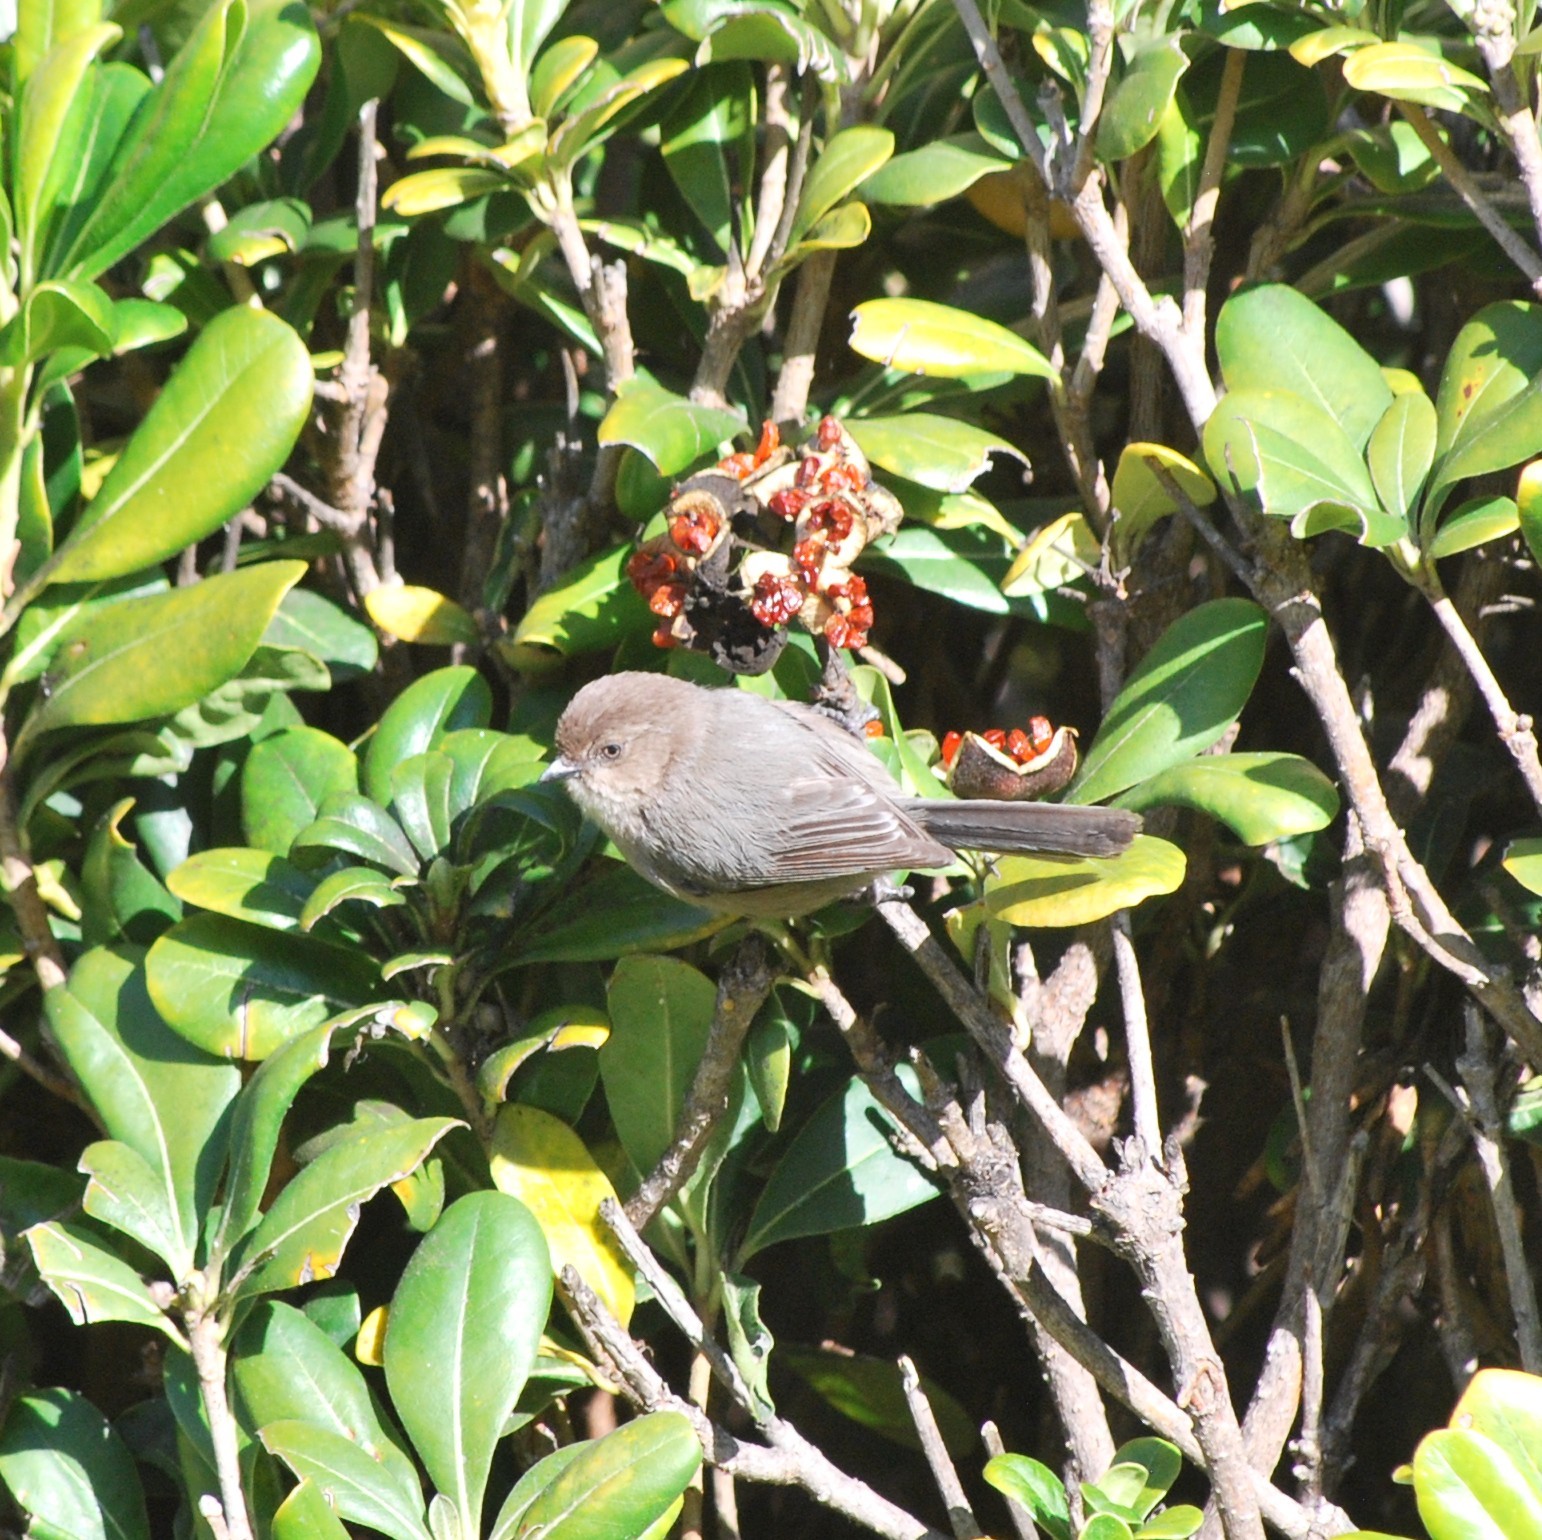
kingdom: Animalia
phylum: Chordata
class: Aves
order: Passeriformes
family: Aegithalidae
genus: Psaltriparus
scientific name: Psaltriparus minimus
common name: American bushtit
